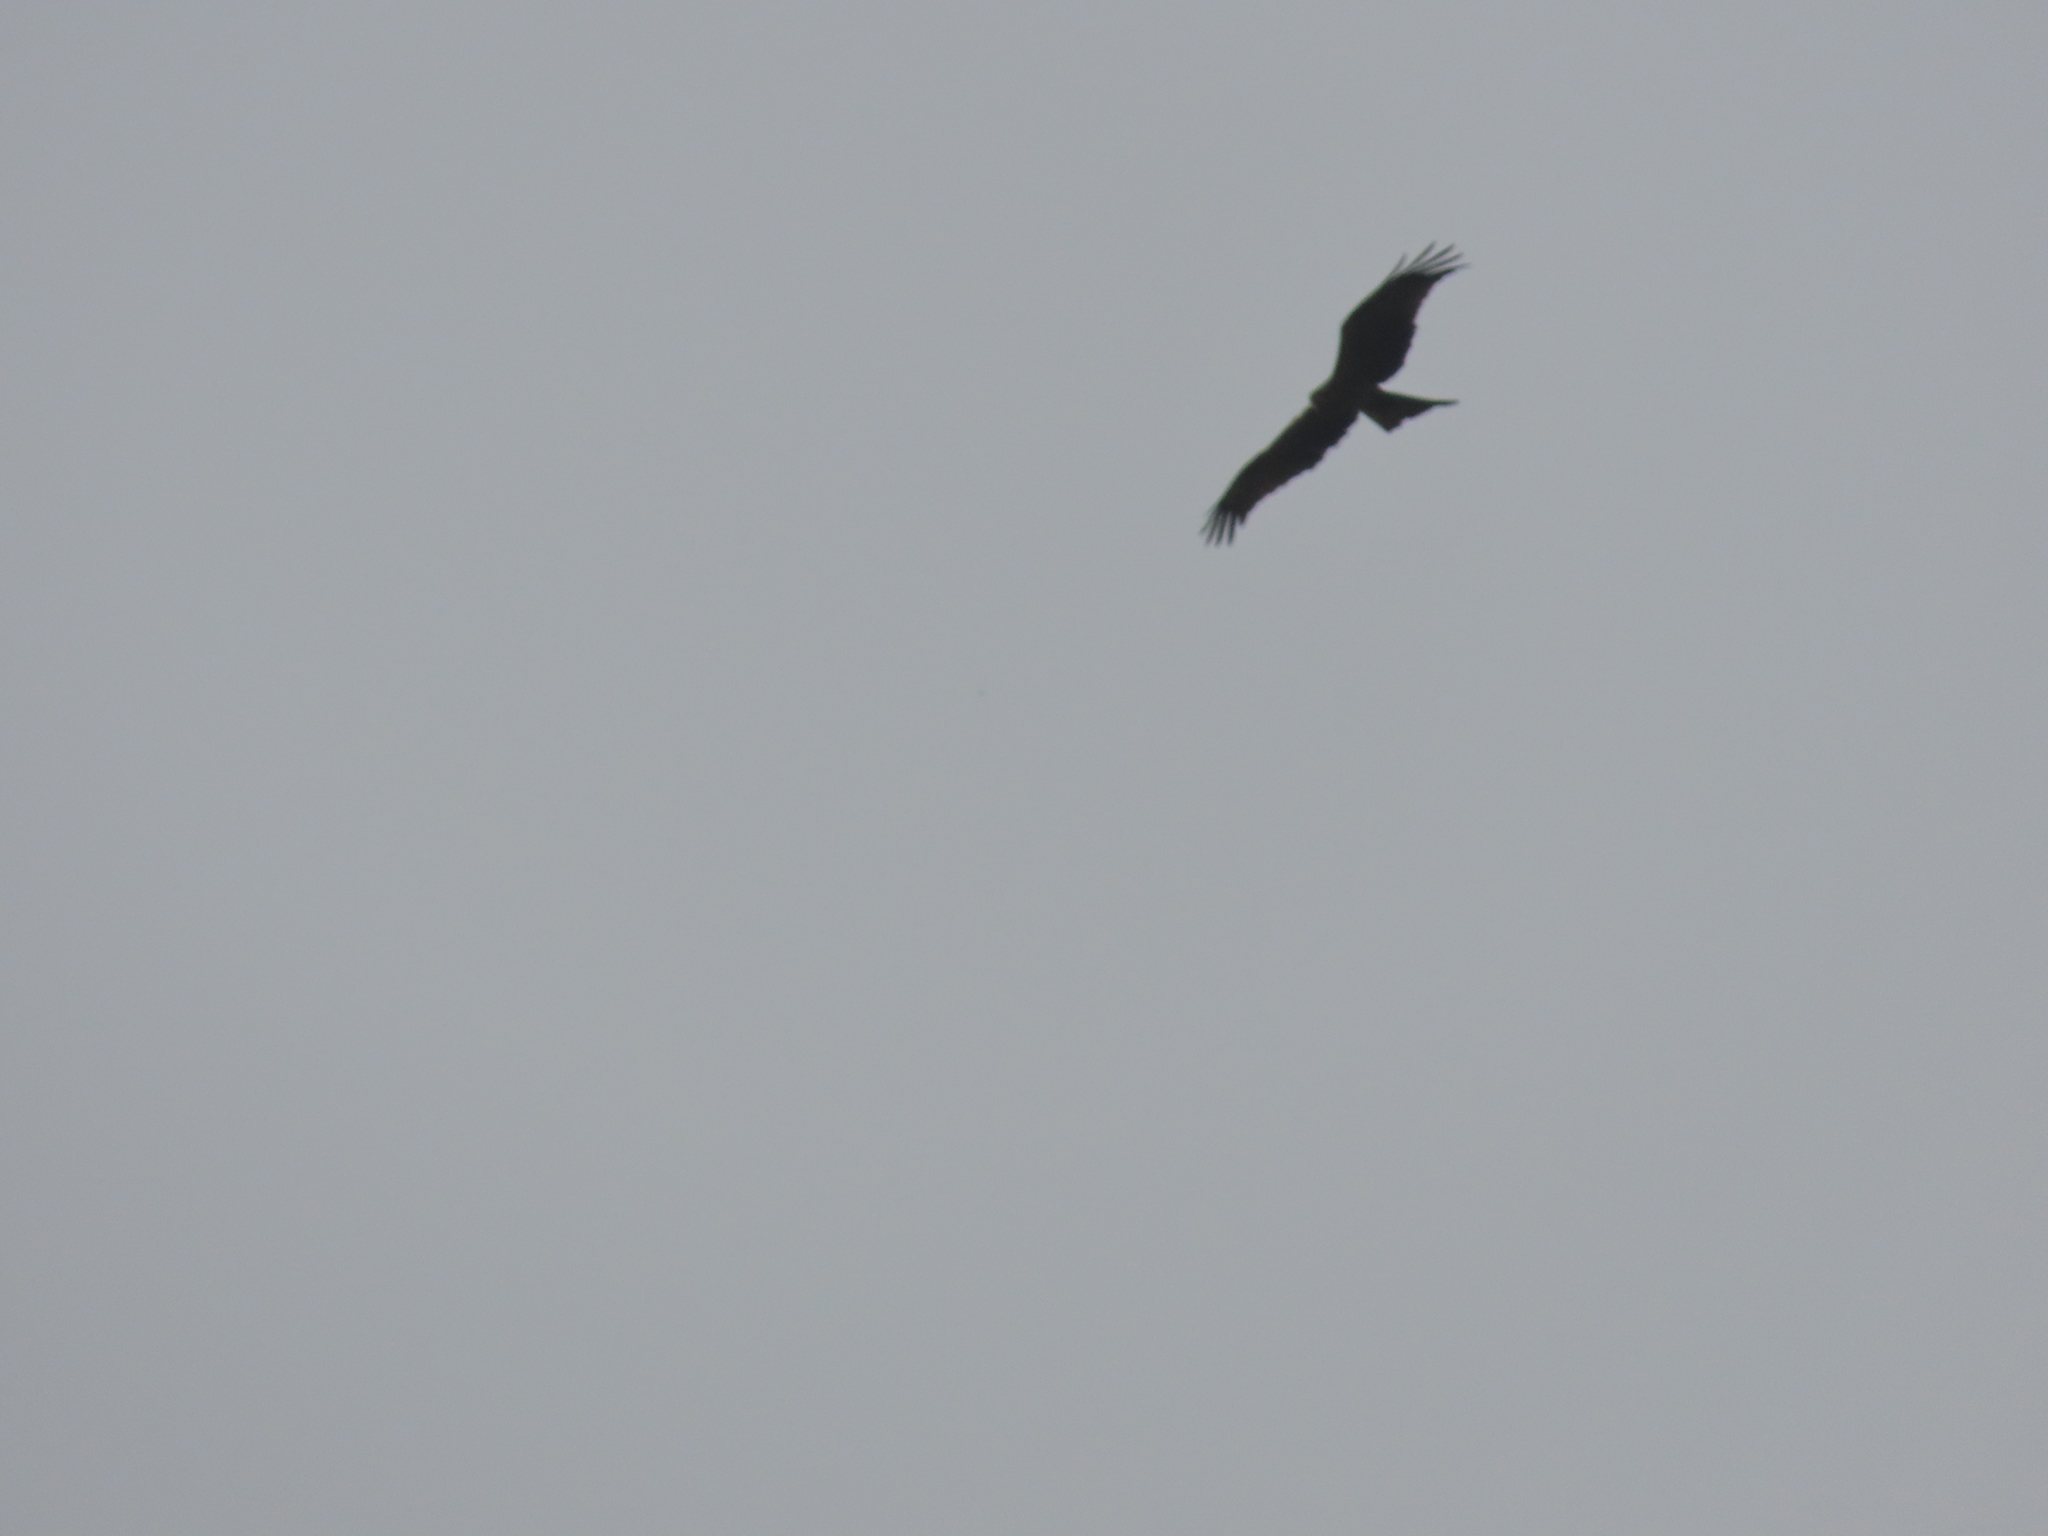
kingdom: Animalia
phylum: Chordata
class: Aves
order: Accipitriformes
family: Accipitridae
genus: Milvus
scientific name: Milvus migrans
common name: Black kite
